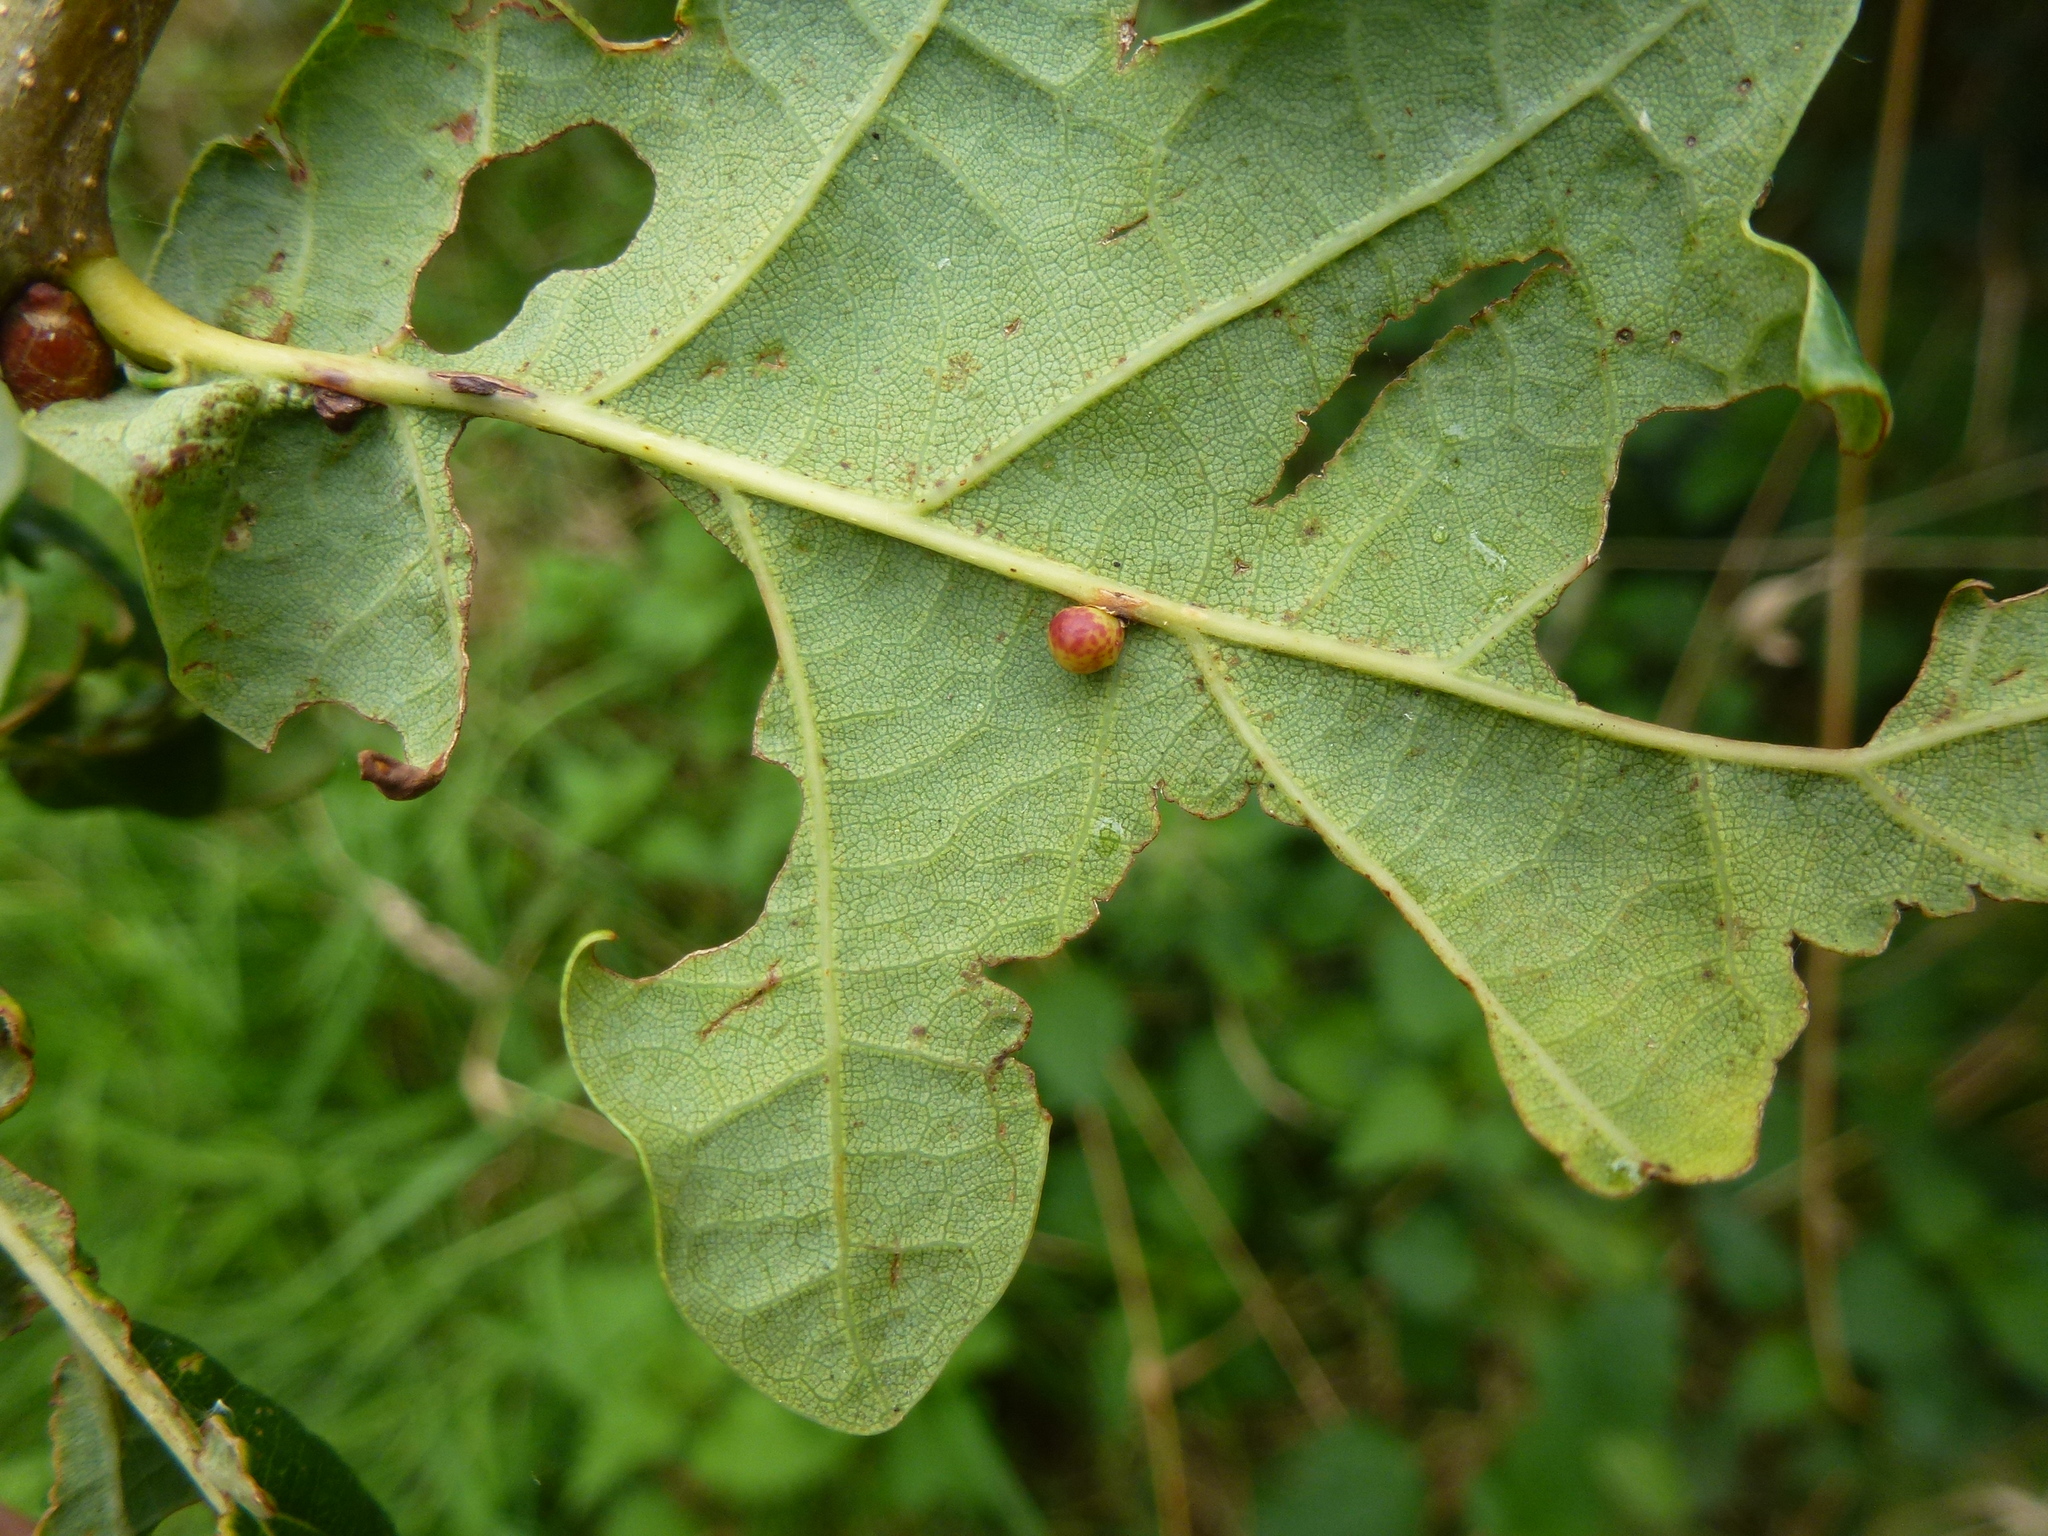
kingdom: Animalia
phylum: Arthropoda
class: Insecta
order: Hymenoptera
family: Cynipidae
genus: Neuroterus
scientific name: Neuroterus anthracinus
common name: Oyster gall
